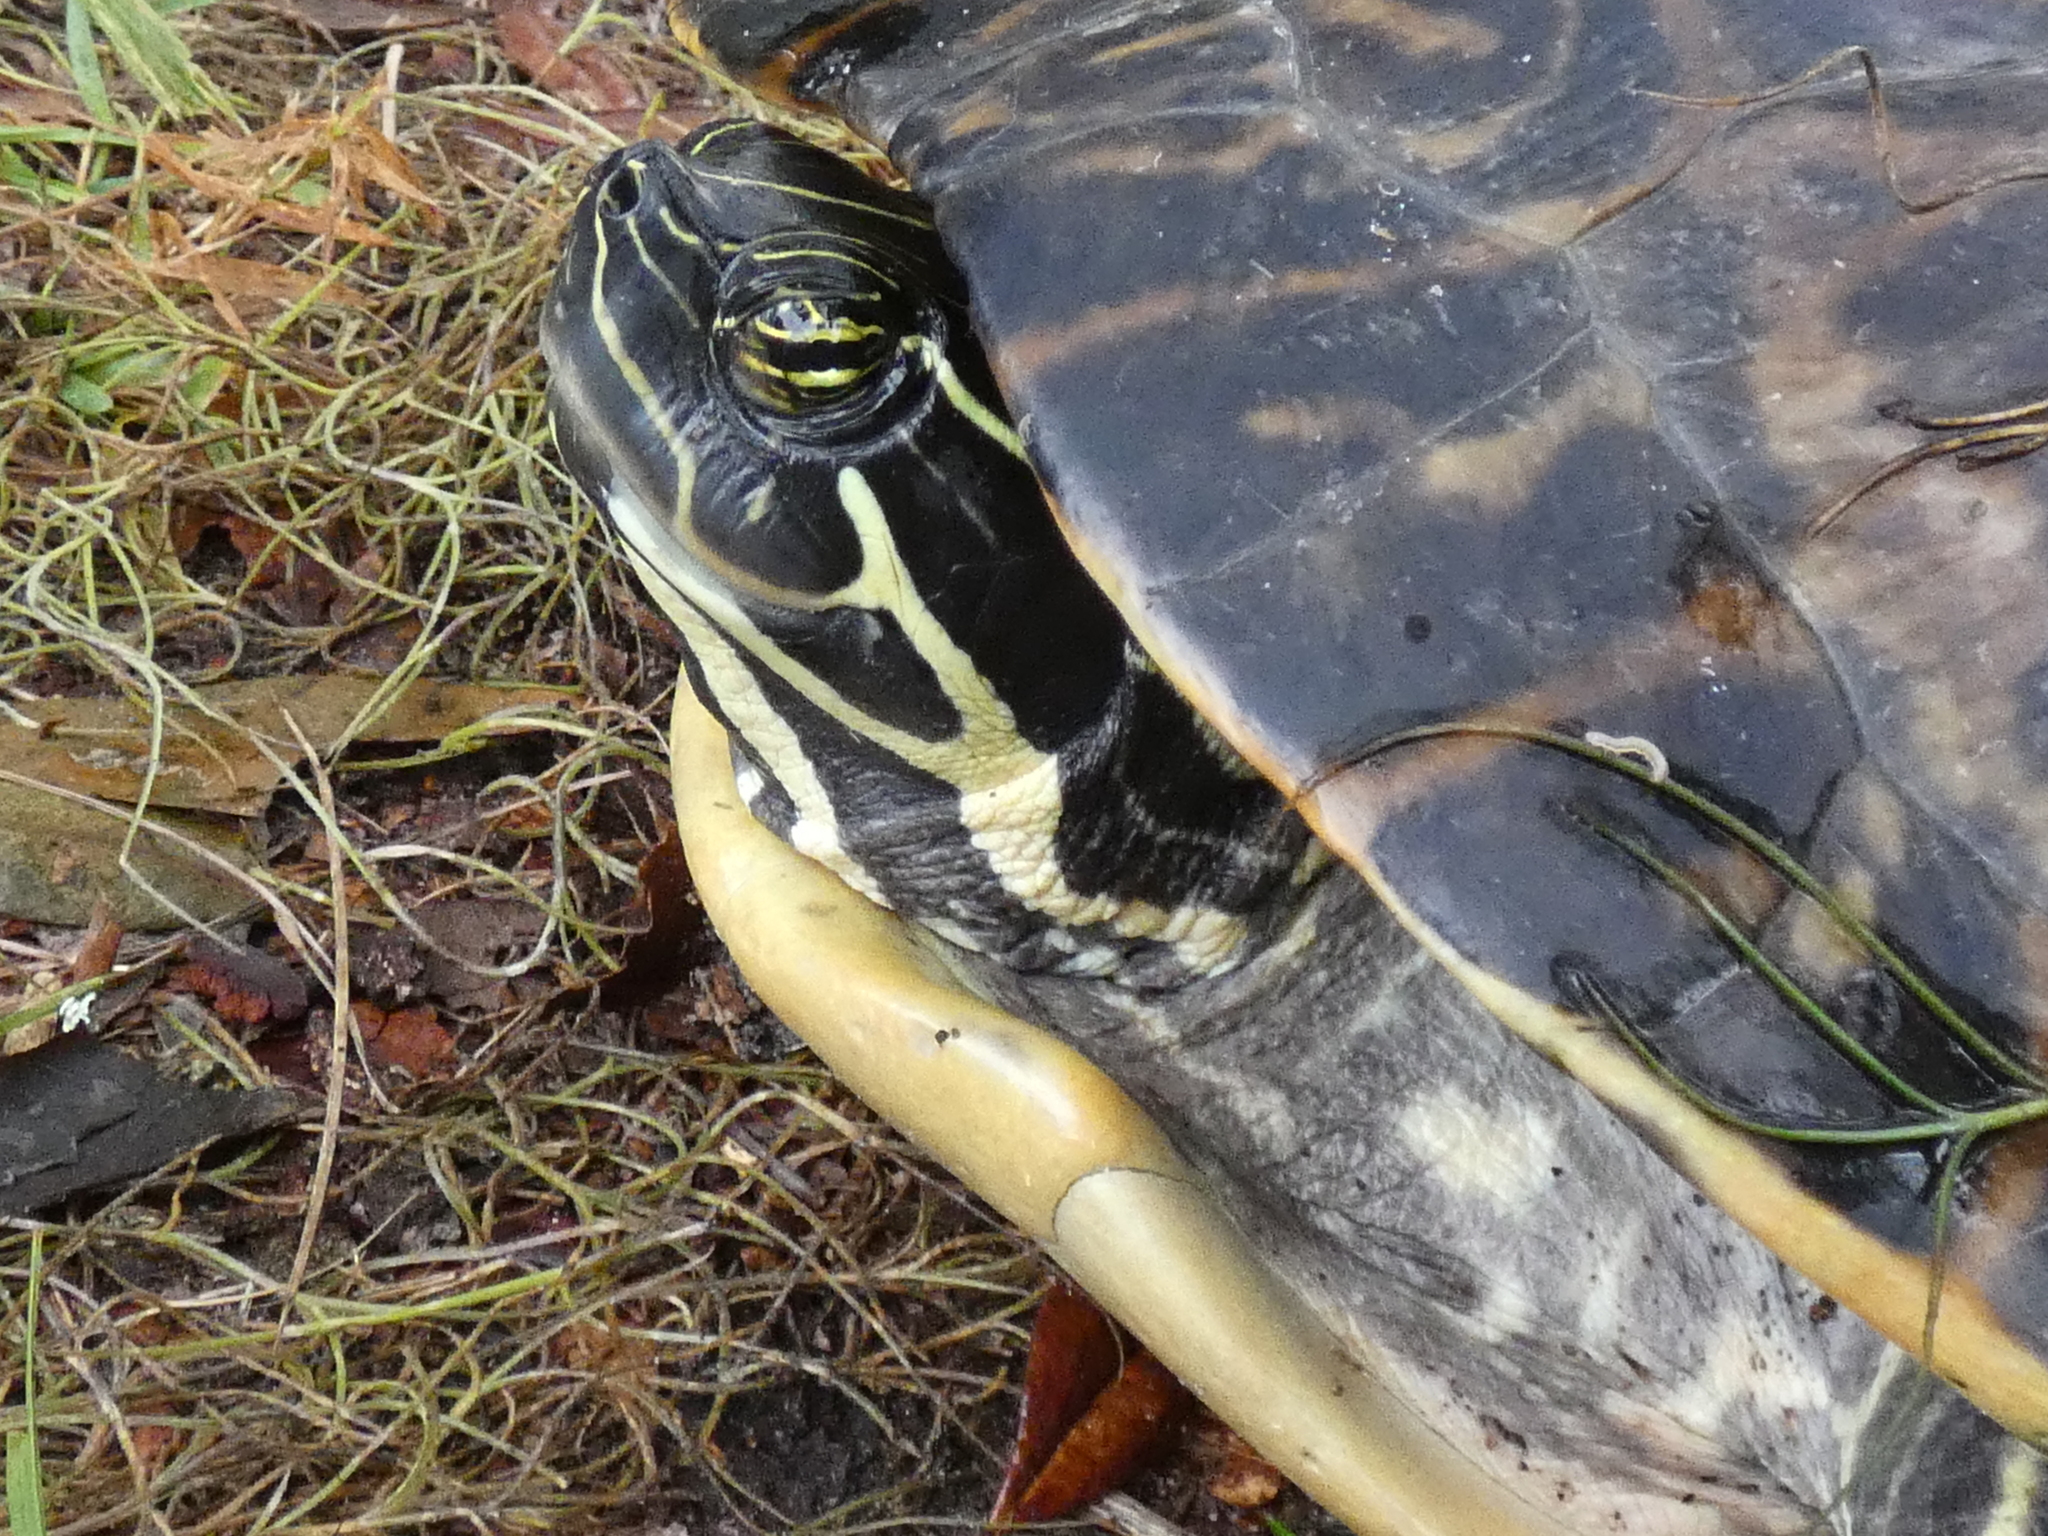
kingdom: Animalia
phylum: Chordata
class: Testudines
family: Emydidae
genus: Pseudemys
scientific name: Pseudemys peninsularis
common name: Peninsula cooter
